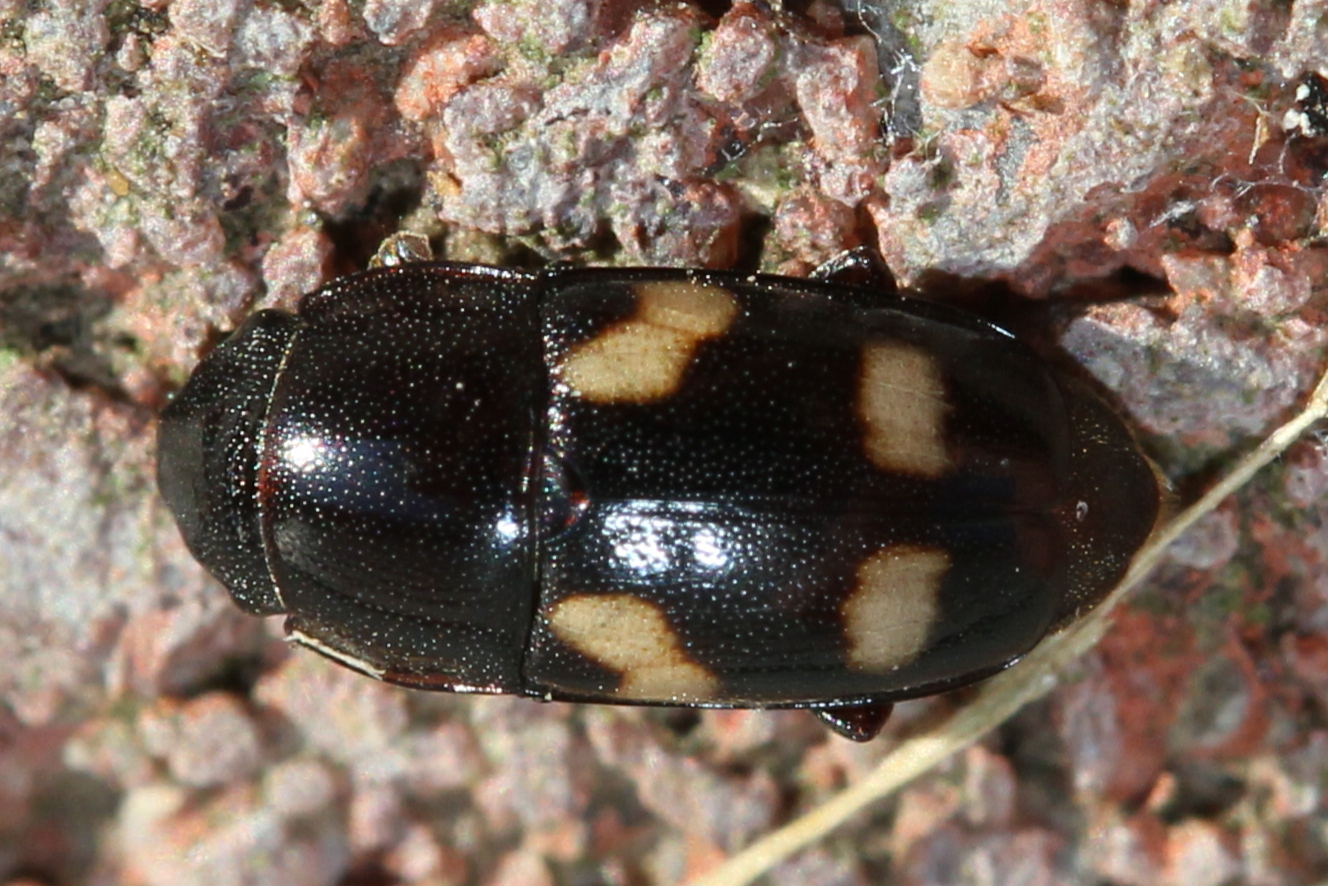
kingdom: Animalia
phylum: Arthropoda
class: Insecta
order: Coleoptera
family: Nitidulidae
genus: Glischrochilus
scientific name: Glischrochilus quadrisignatus
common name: Picnic beetle
